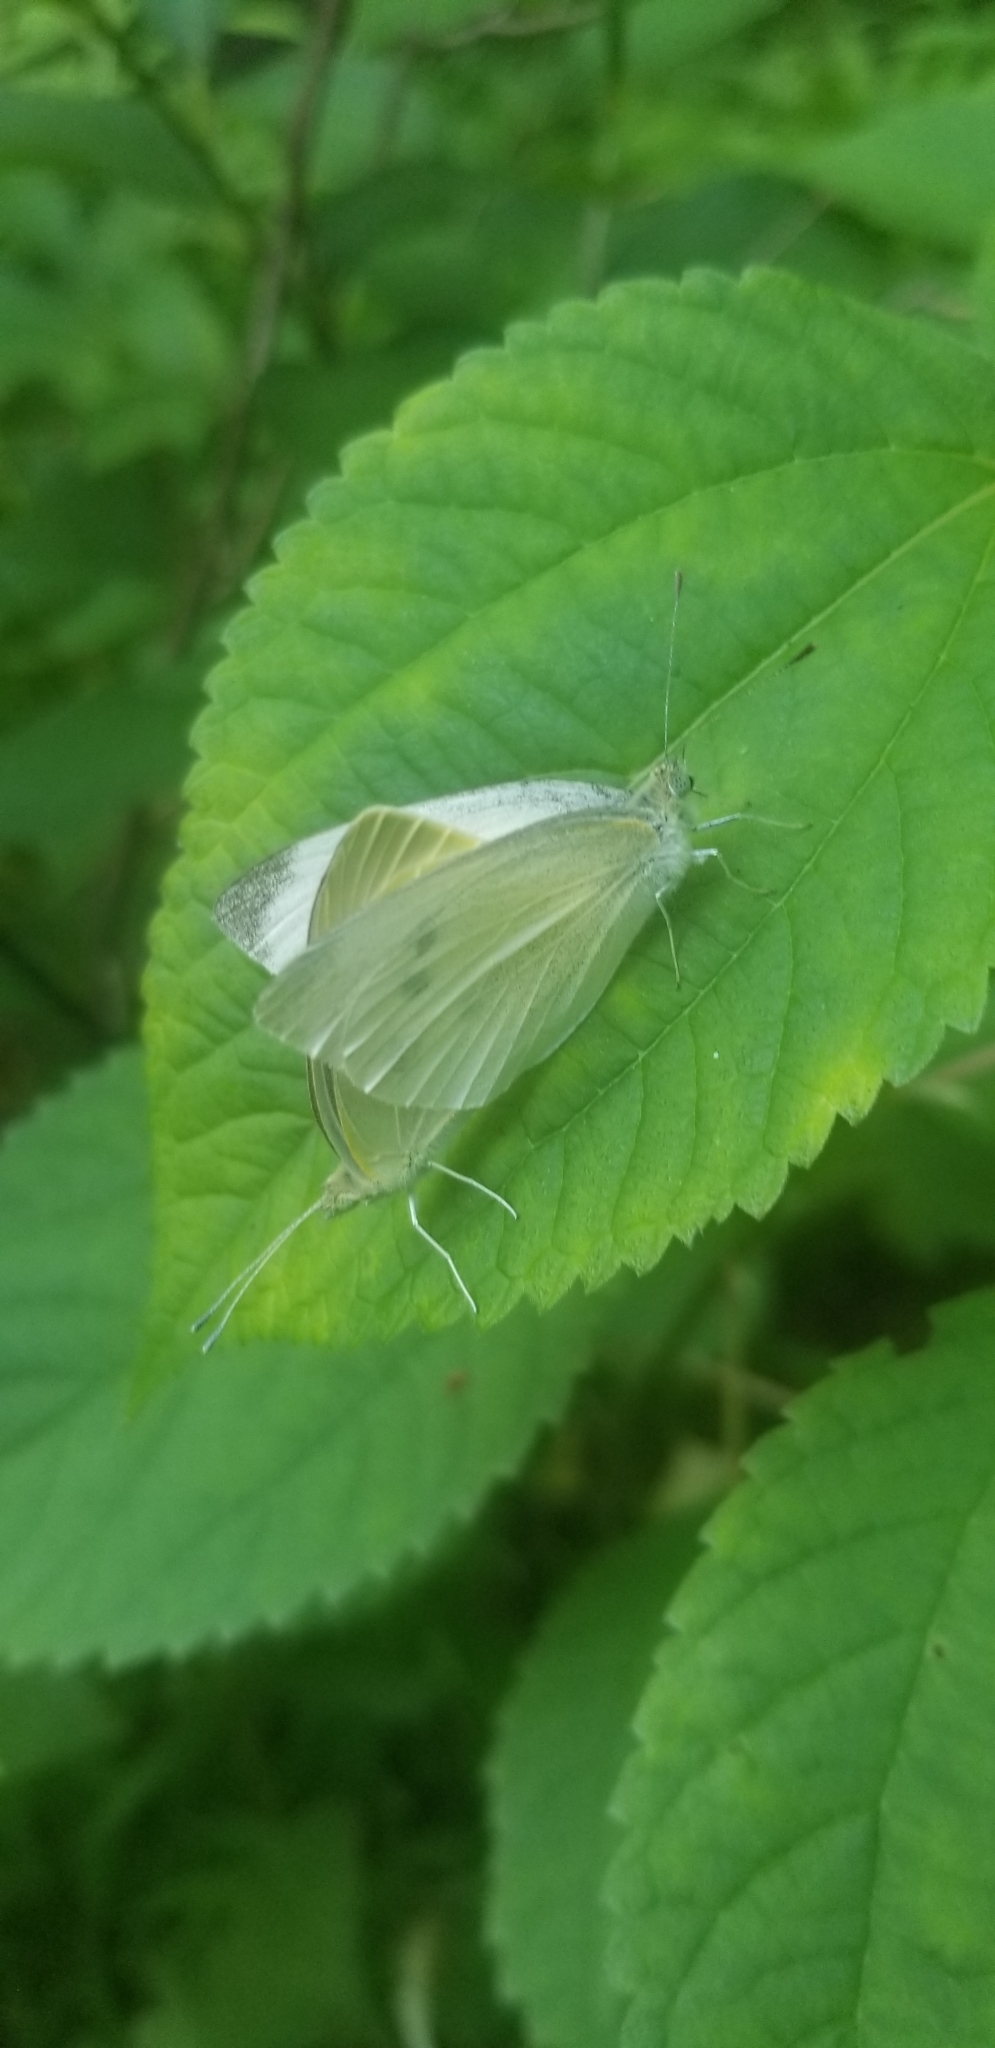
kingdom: Animalia
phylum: Arthropoda
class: Insecta
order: Lepidoptera
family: Pieridae
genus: Pieris
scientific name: Pieris rapae
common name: Small white
